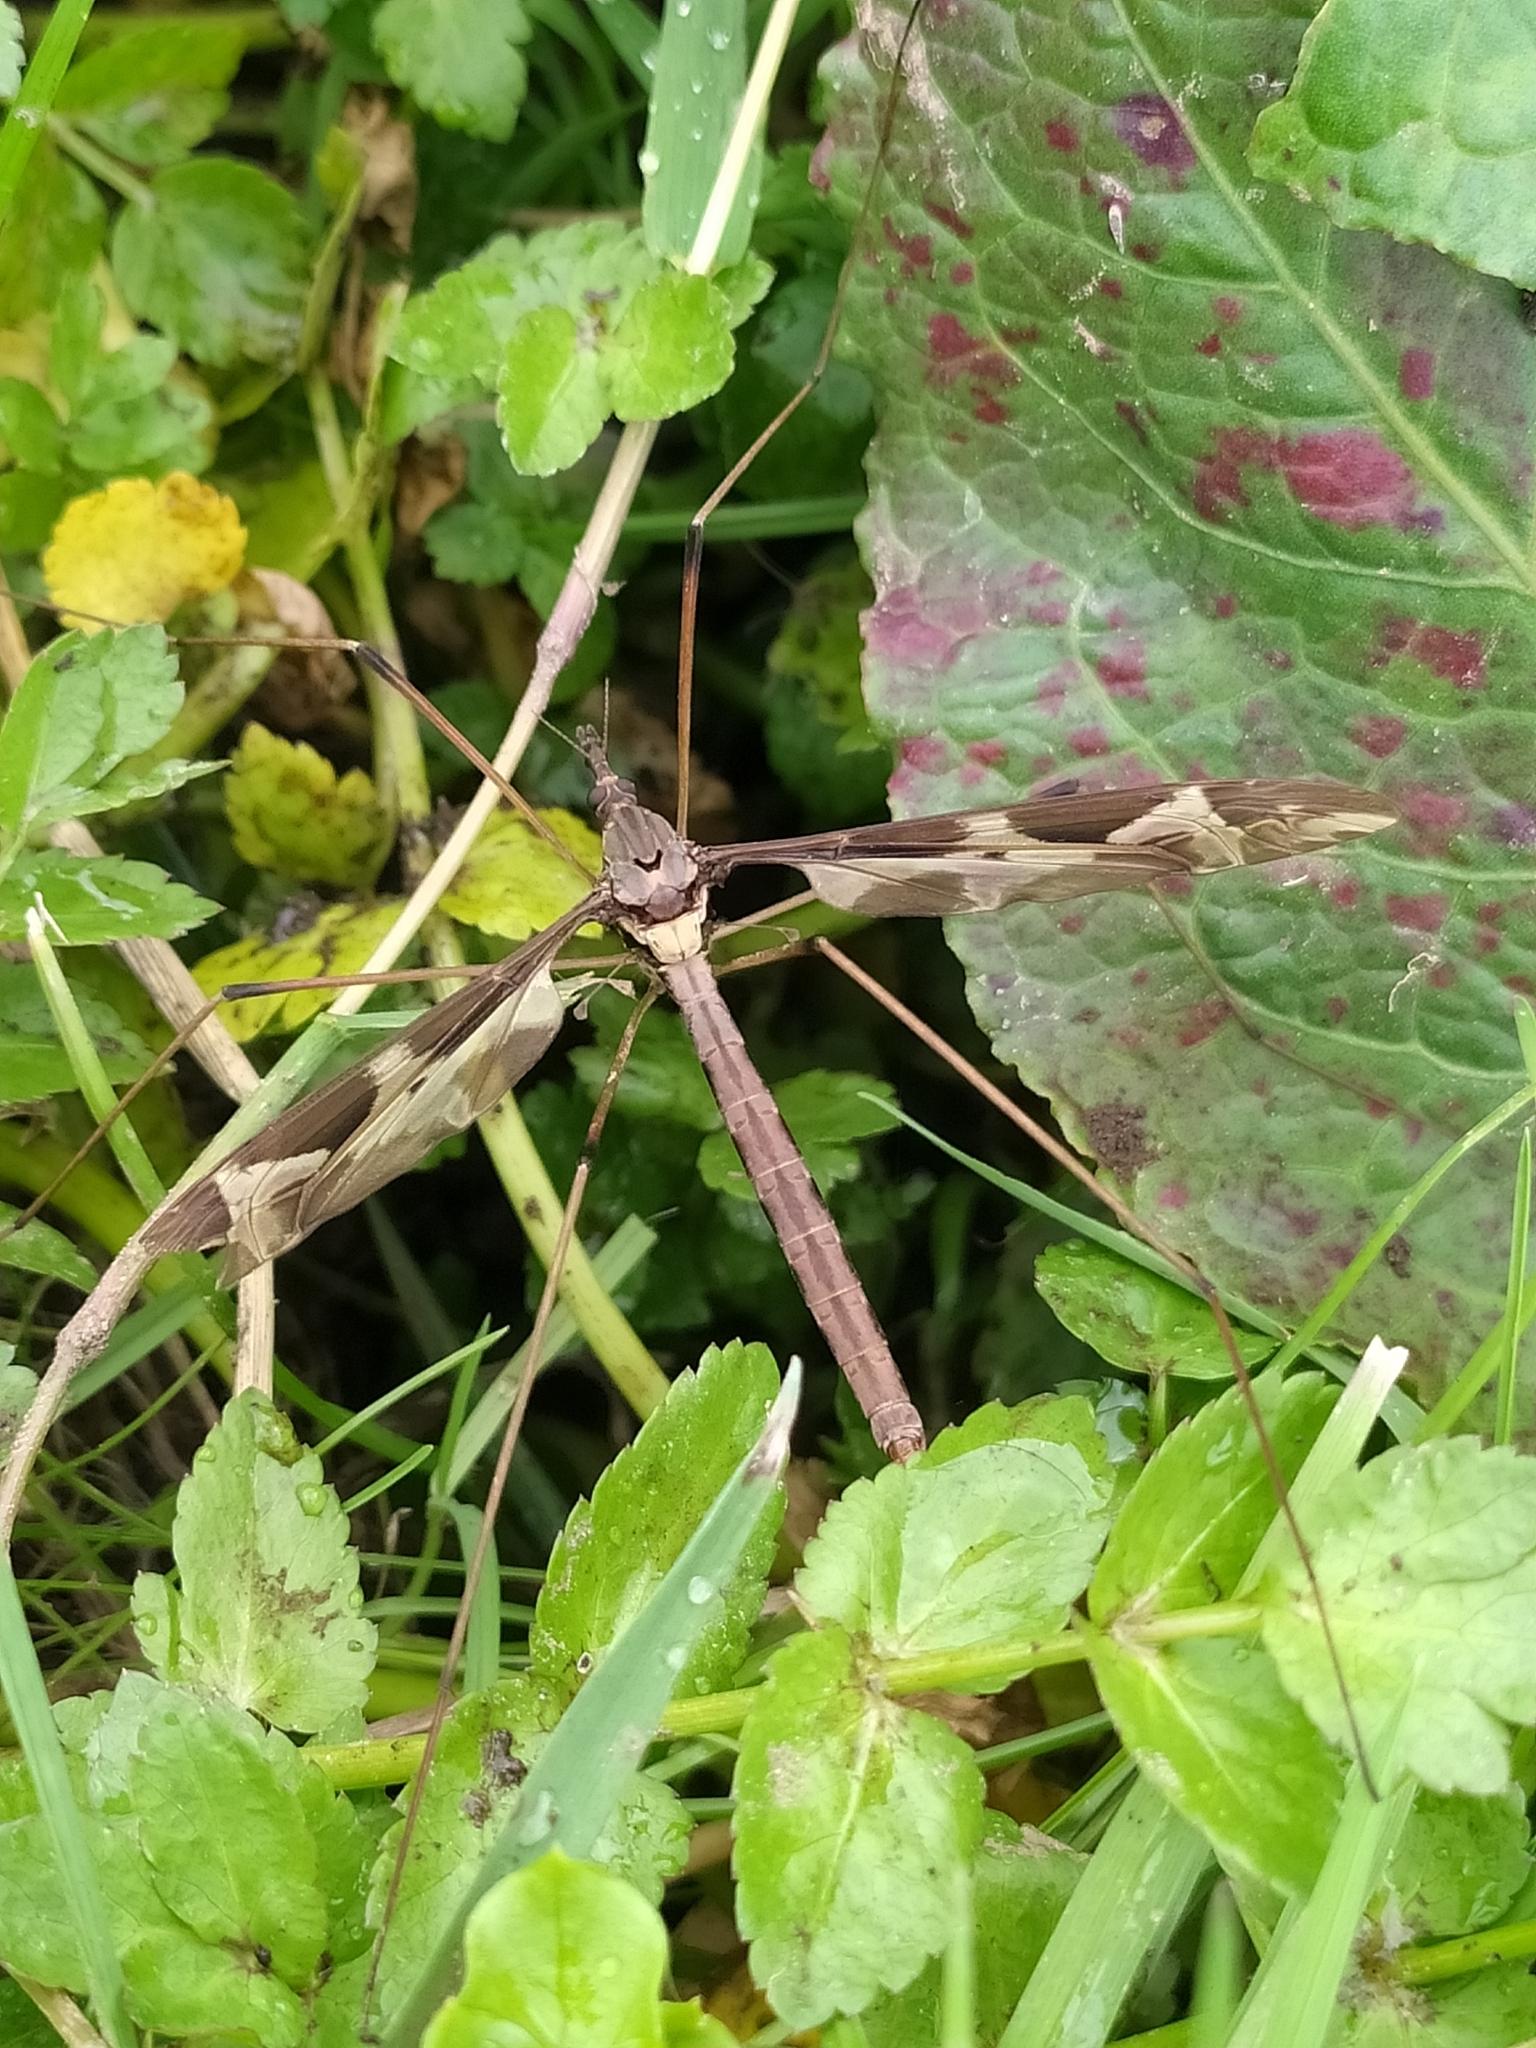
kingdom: Animalia
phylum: Arthropoda
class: Insecta
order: Diptera
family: Tipulidae
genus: Tipula
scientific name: Tipula maxima
